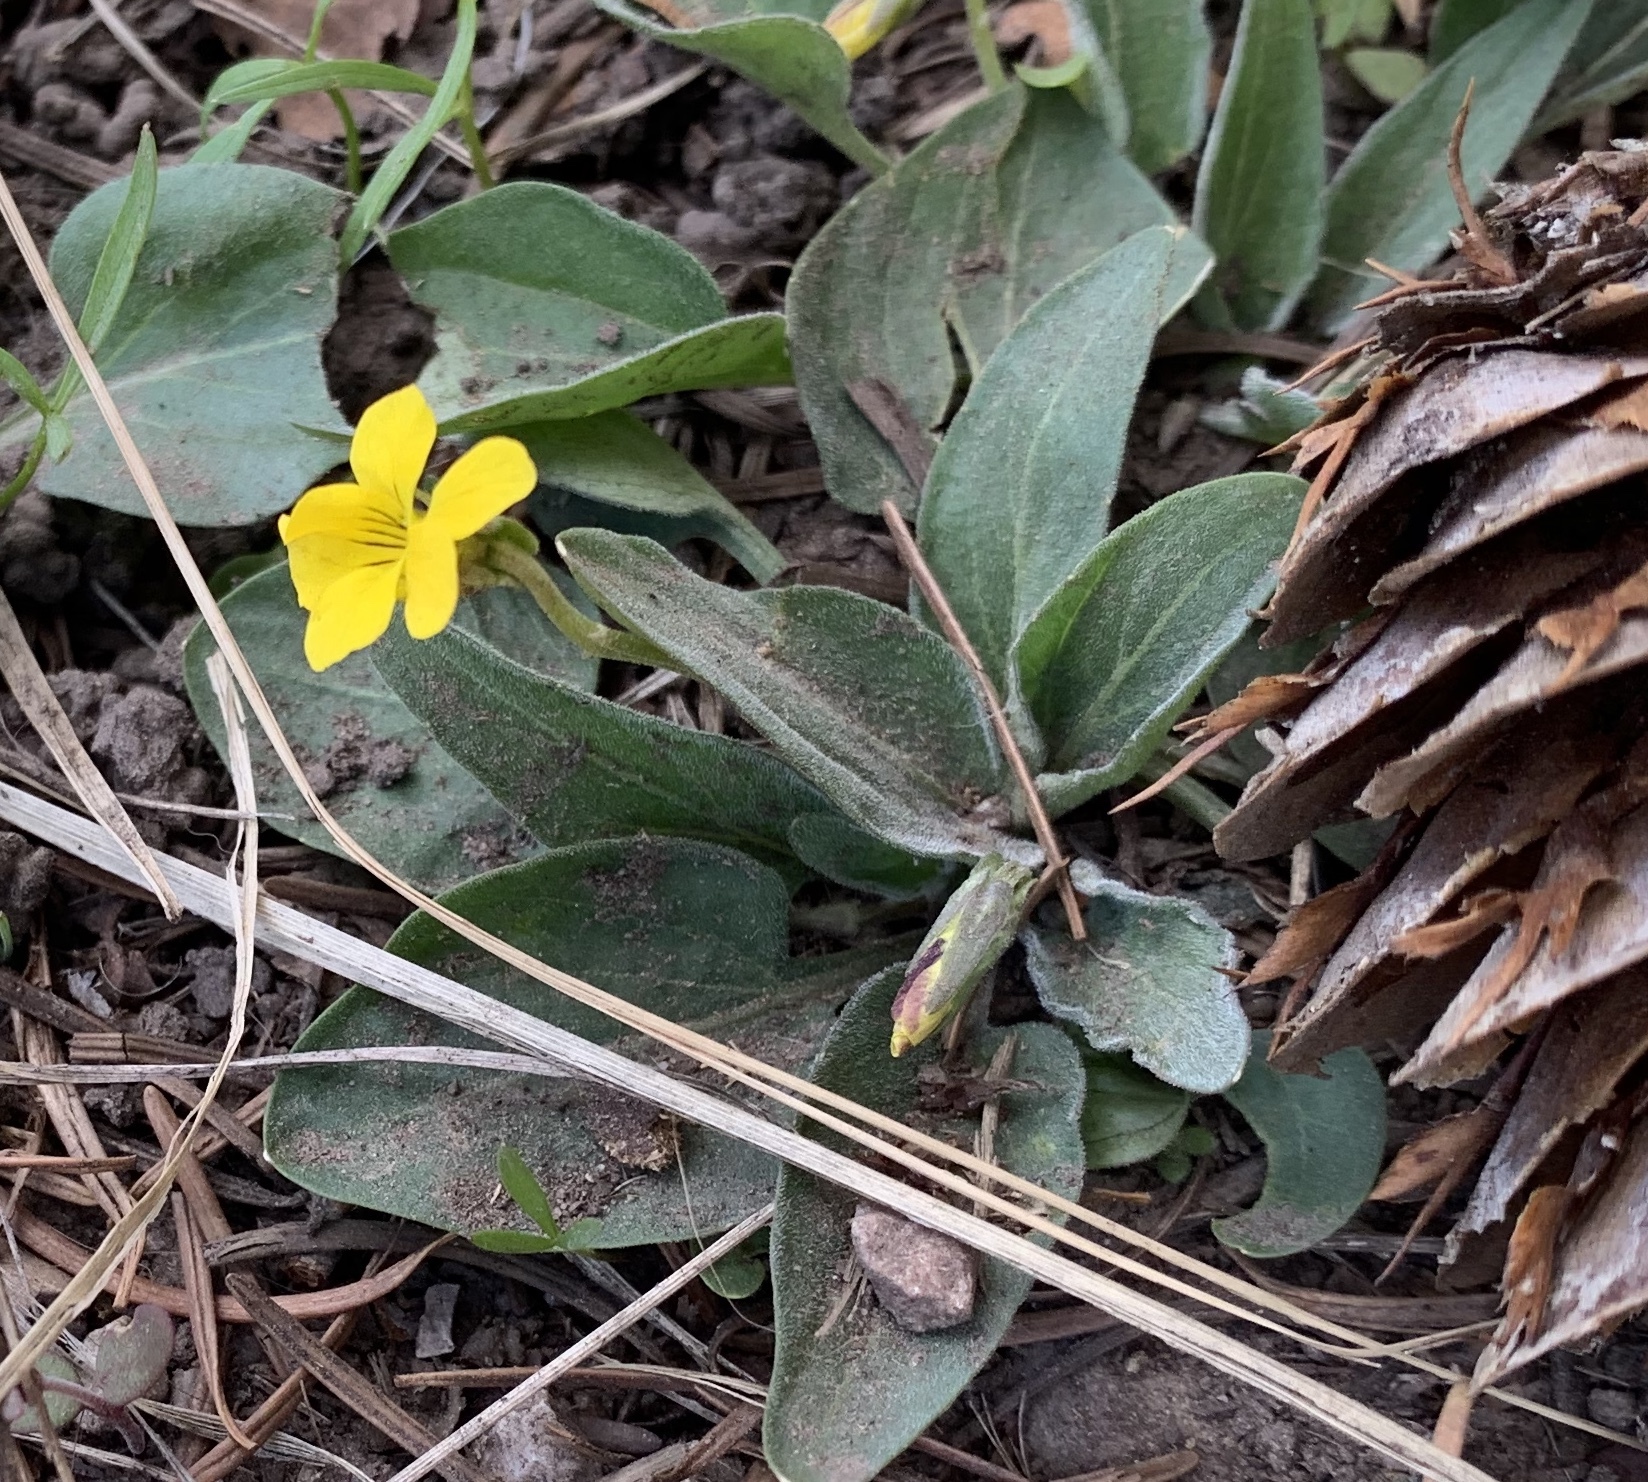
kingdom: Plantae
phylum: Tracheophyta
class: Magnoliopsida
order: Malpighiales
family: Violaceae
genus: Viola
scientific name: Viola vallicola
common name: Valley violet
